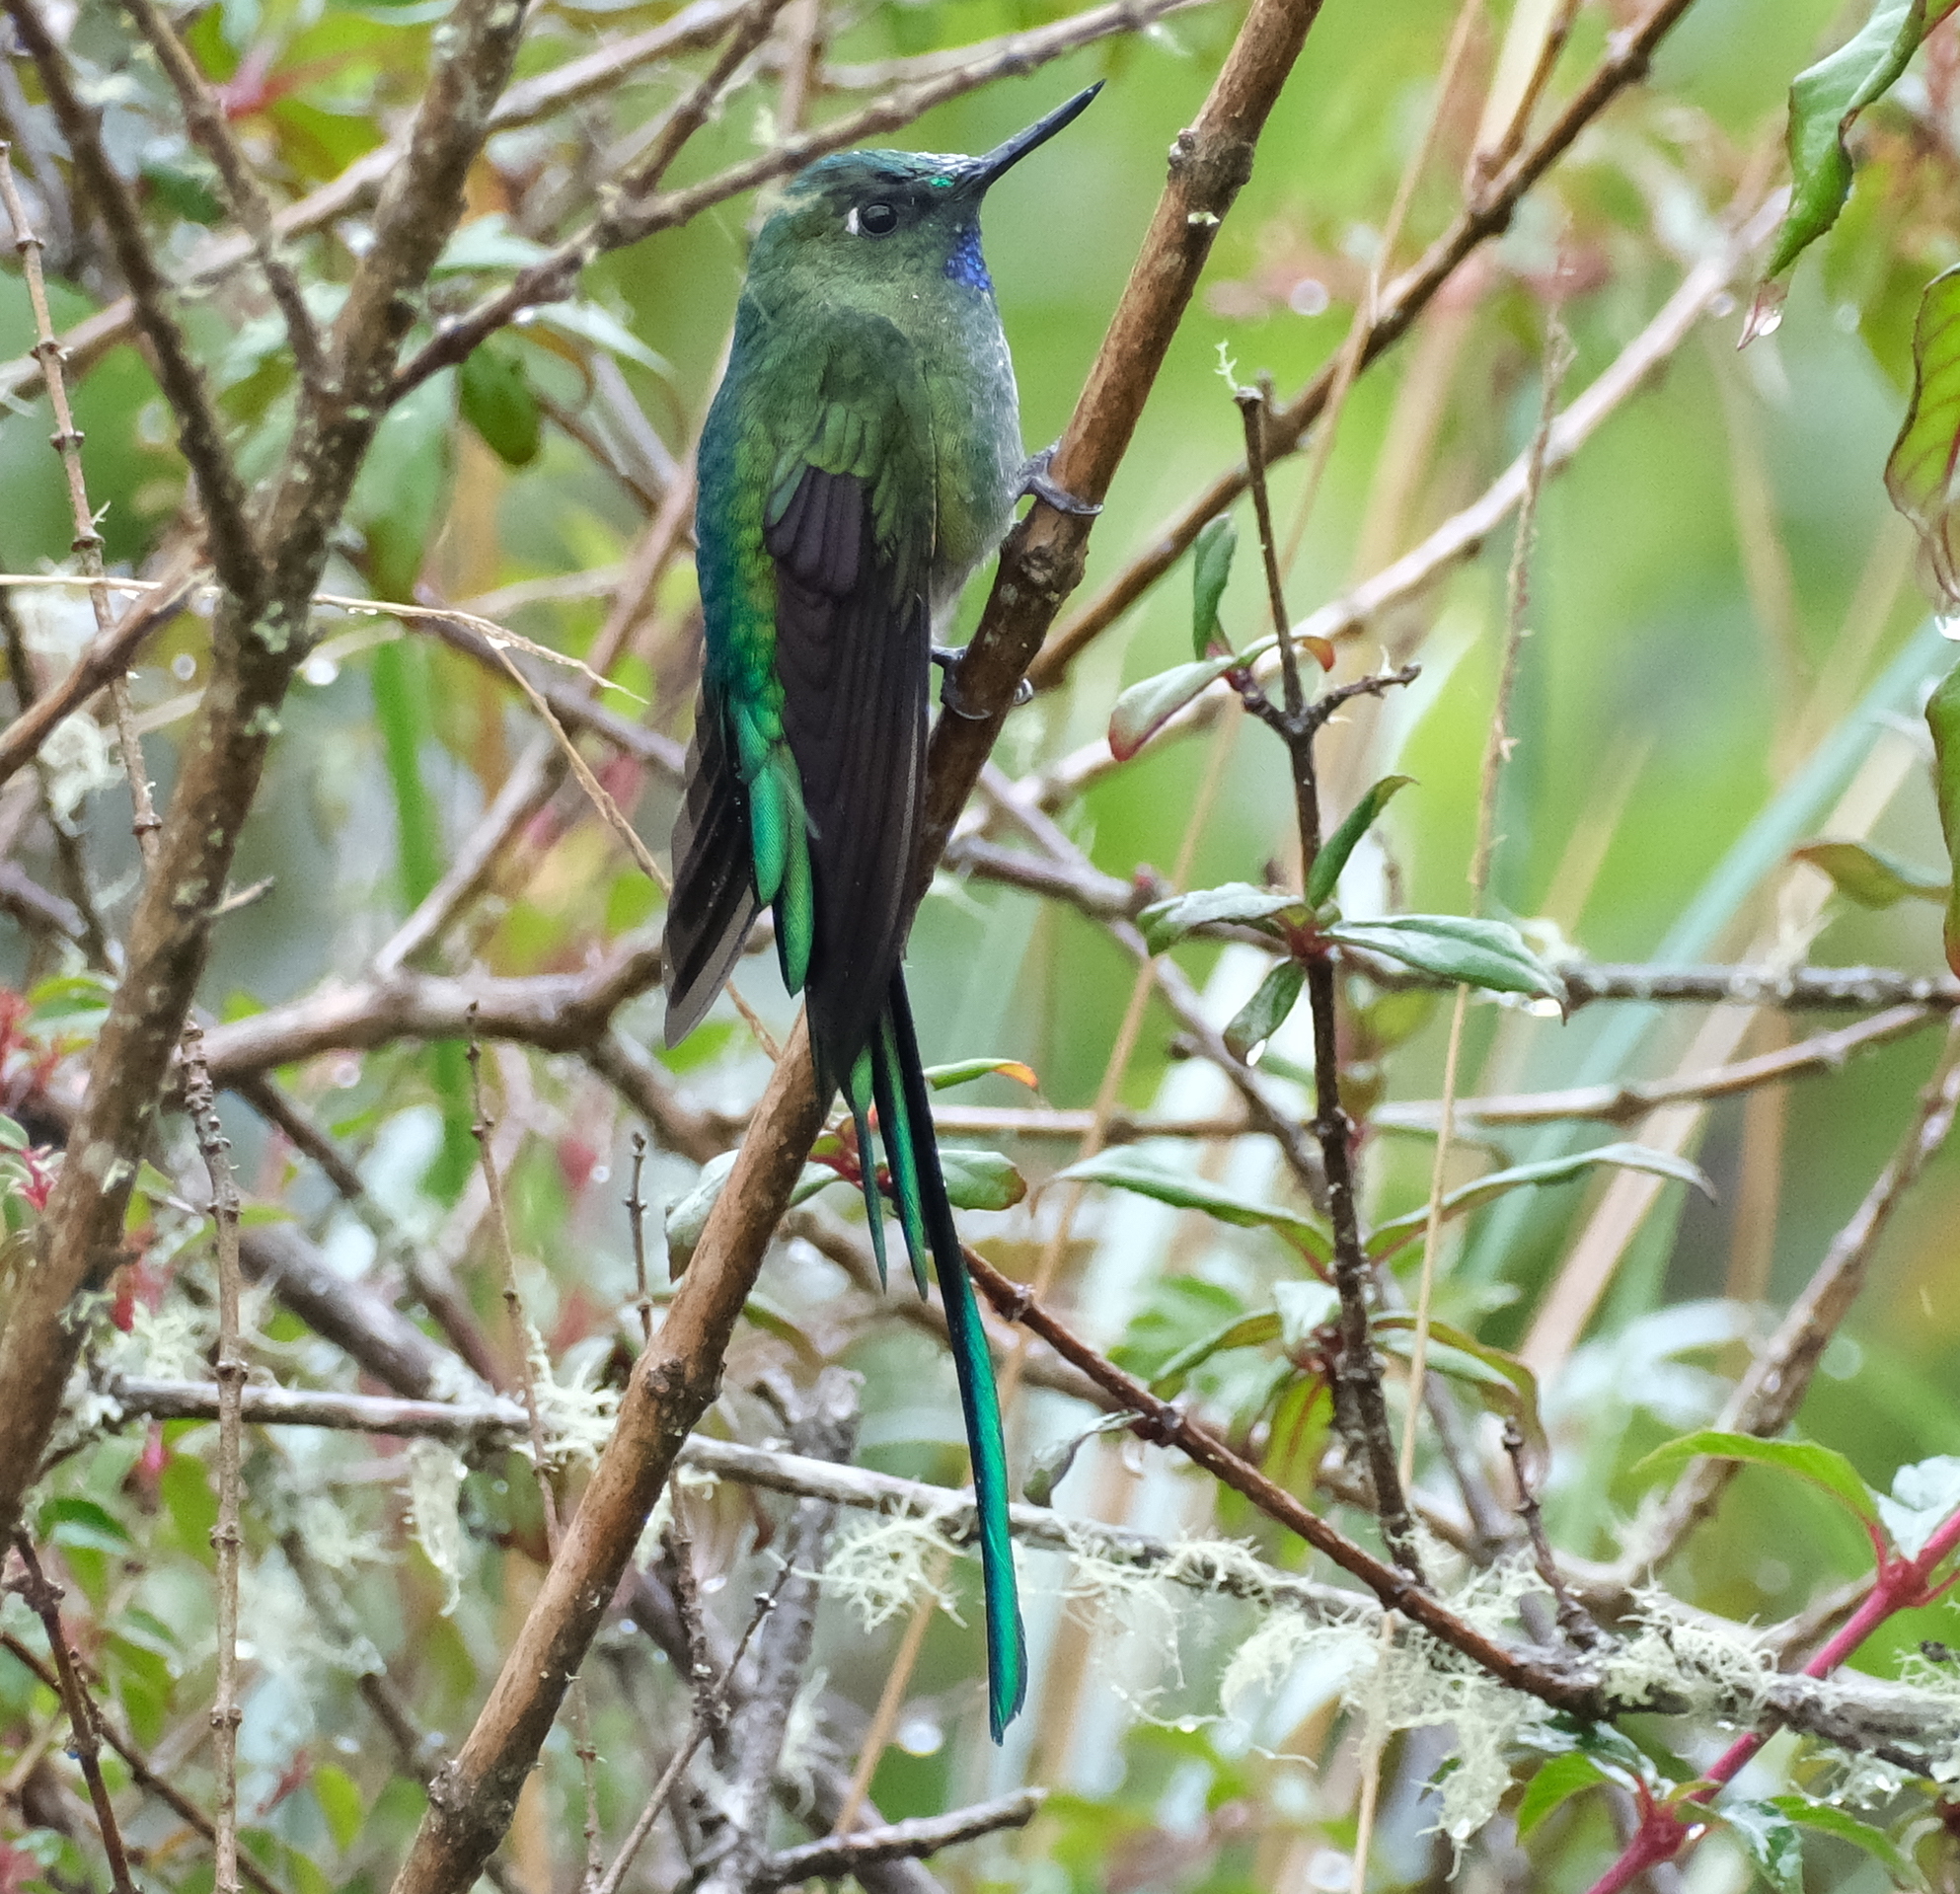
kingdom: Animalia
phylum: Chordata
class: Aves
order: Apodiformes
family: Trochilidae
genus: Aglaiocercus
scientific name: Aglaiocercus kingii
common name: Long-tailed sylph
